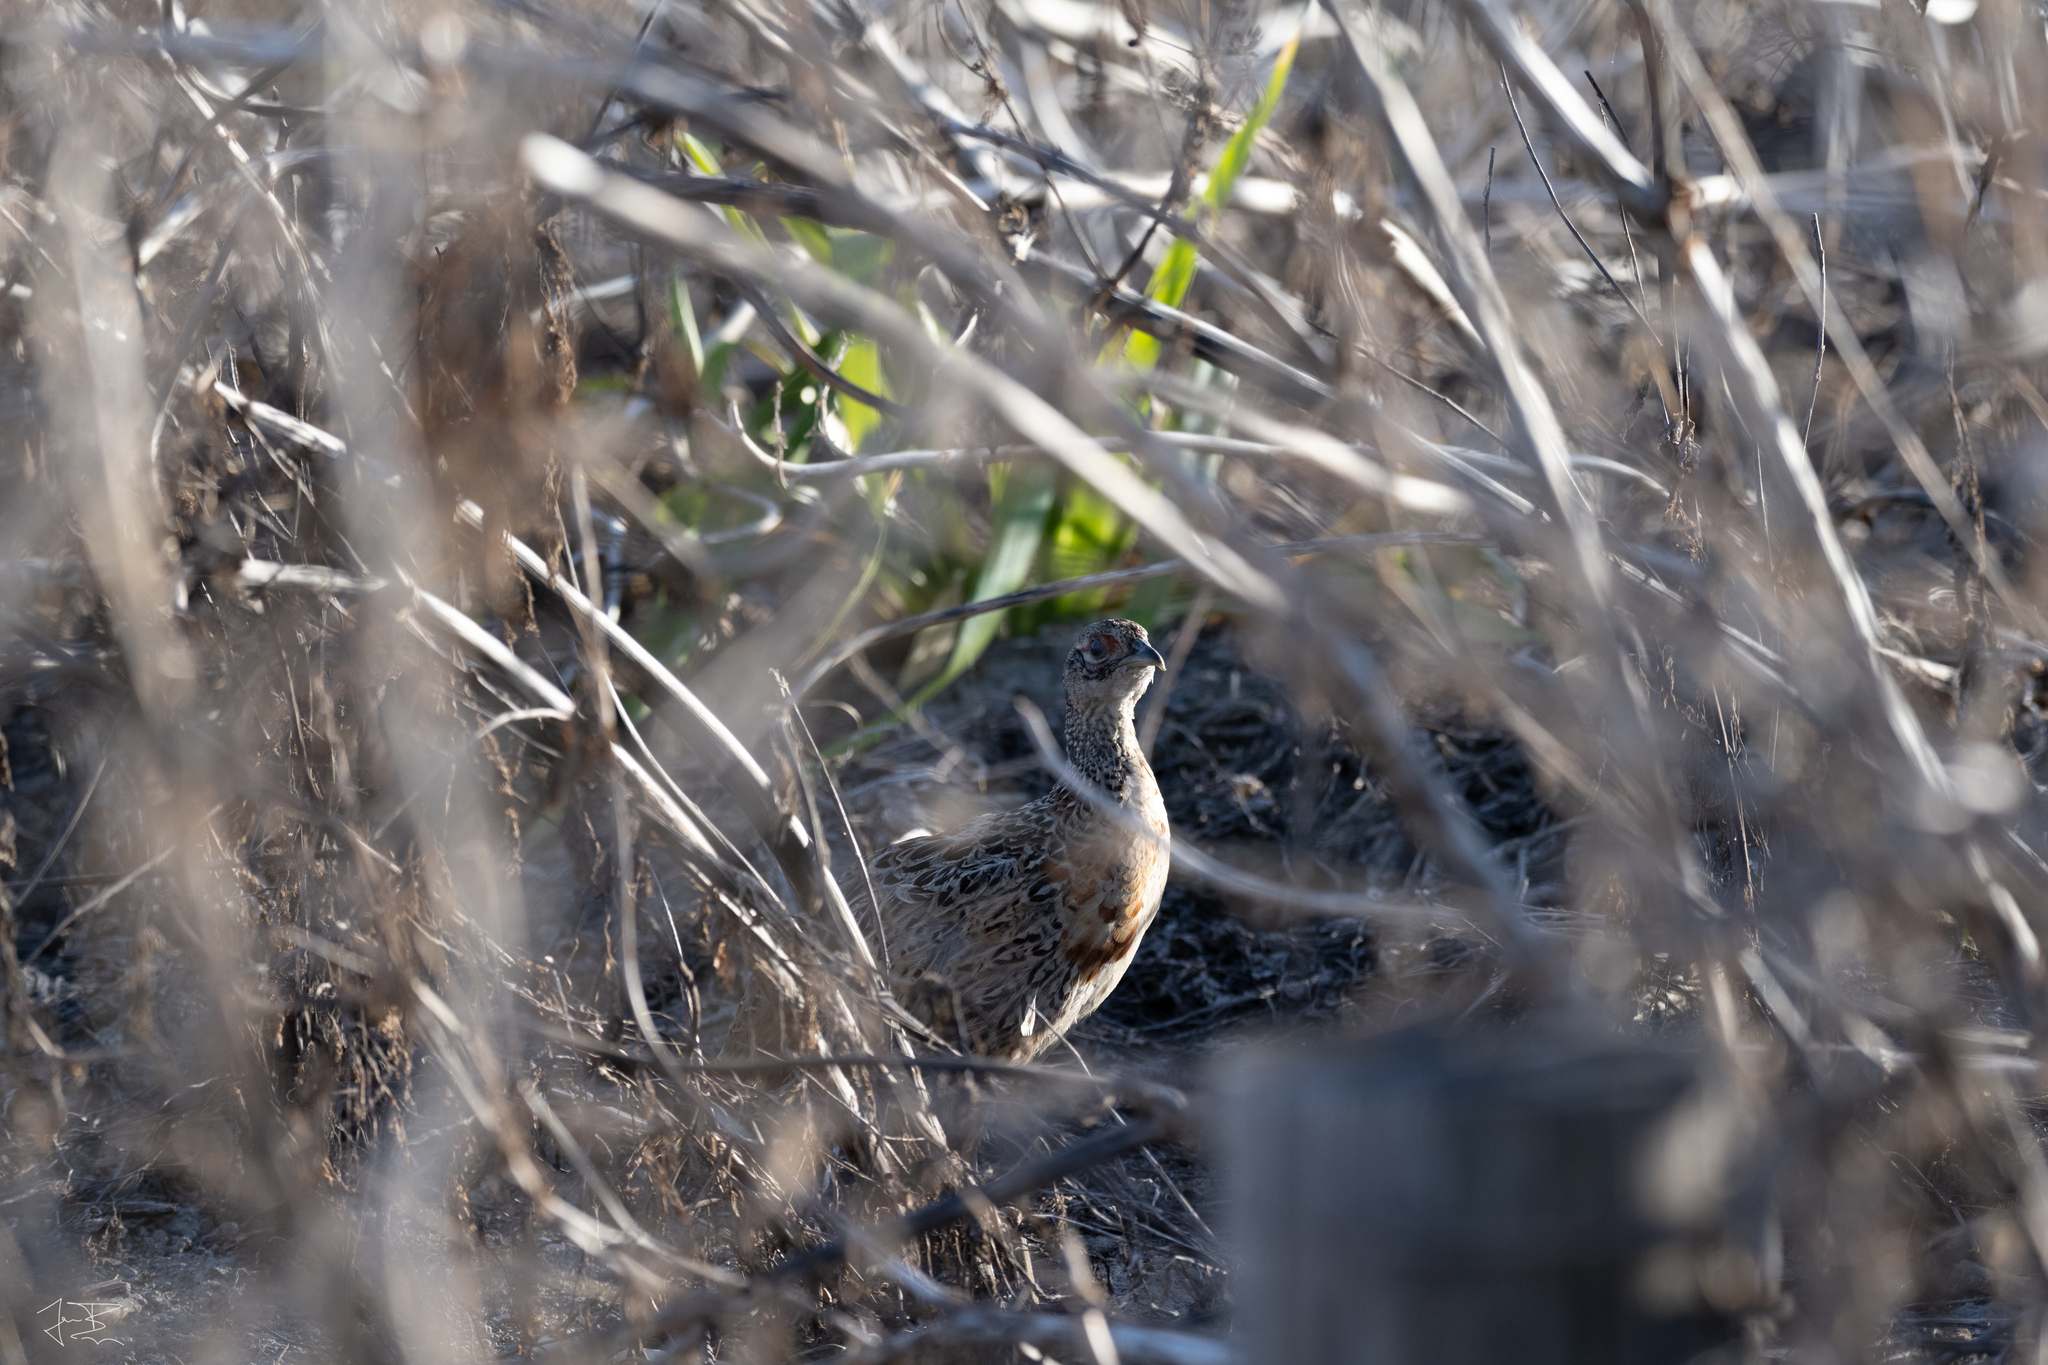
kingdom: Animalia
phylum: Chordata
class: Aves
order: Galliformes
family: Phasianidae
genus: Phasianus
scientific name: Phasianus colchicus
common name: Common pheasant
